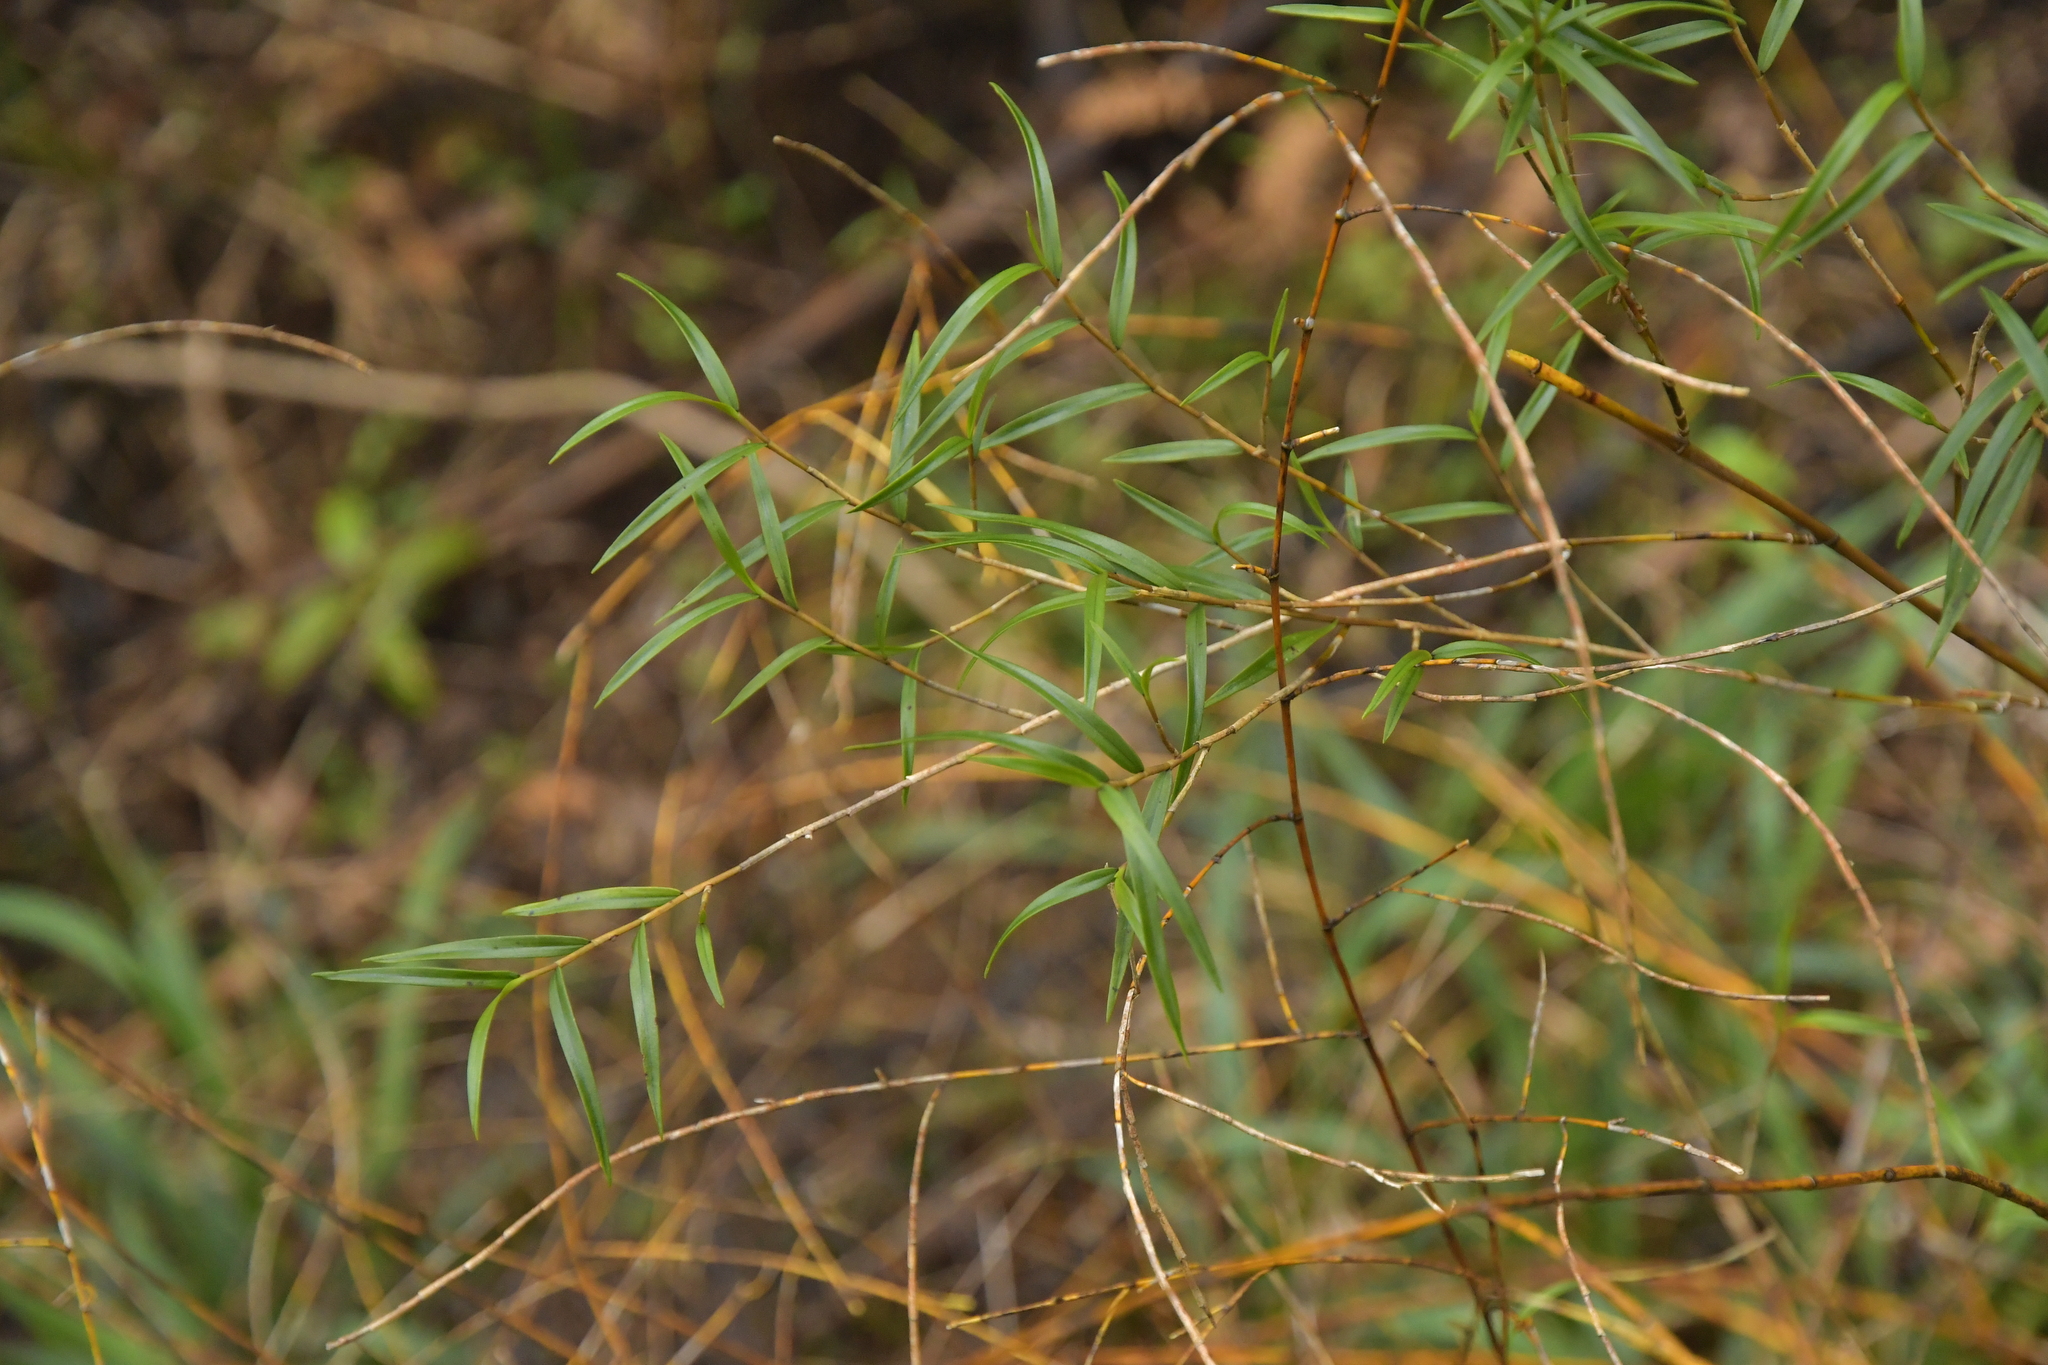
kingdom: Plantae
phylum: Tracheophyta
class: Liliopsida
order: Asparagales
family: Orchidaceae
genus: Dendrobium
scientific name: Dendrobium cunninghamii
